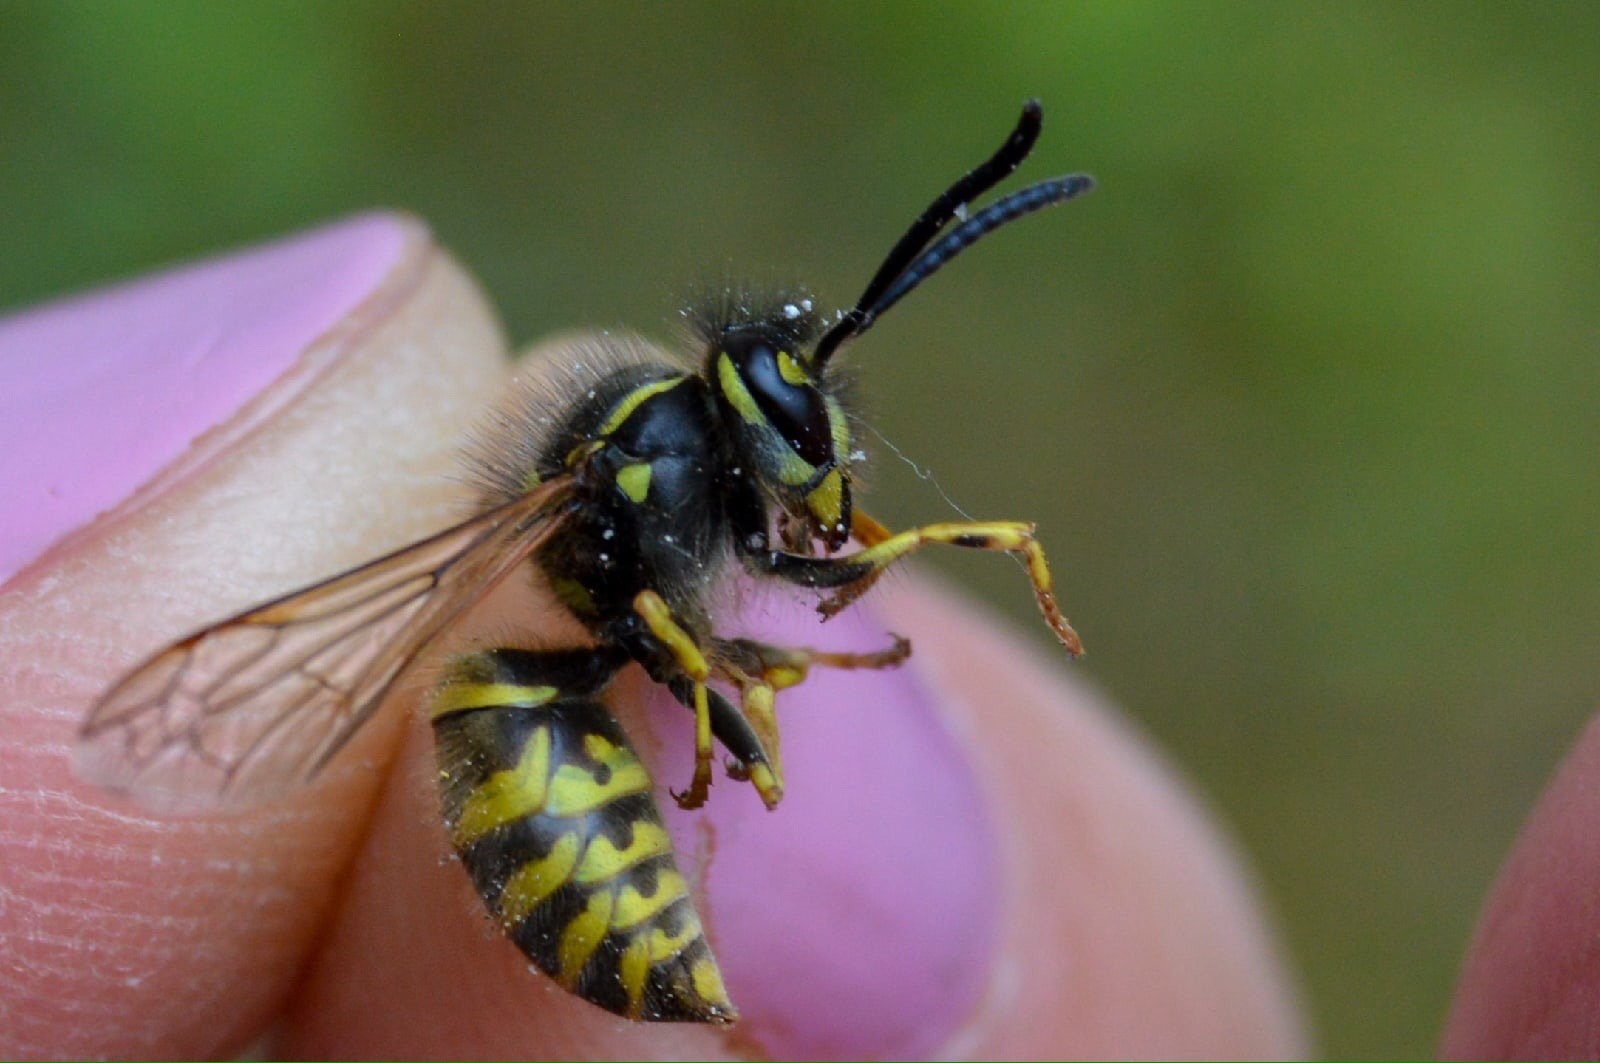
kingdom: Animalia
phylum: Arthropoda
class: Insecta
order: Hymenoptera
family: Vespidae
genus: Vespula
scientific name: Vespula vulgaris
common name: Common wasp
